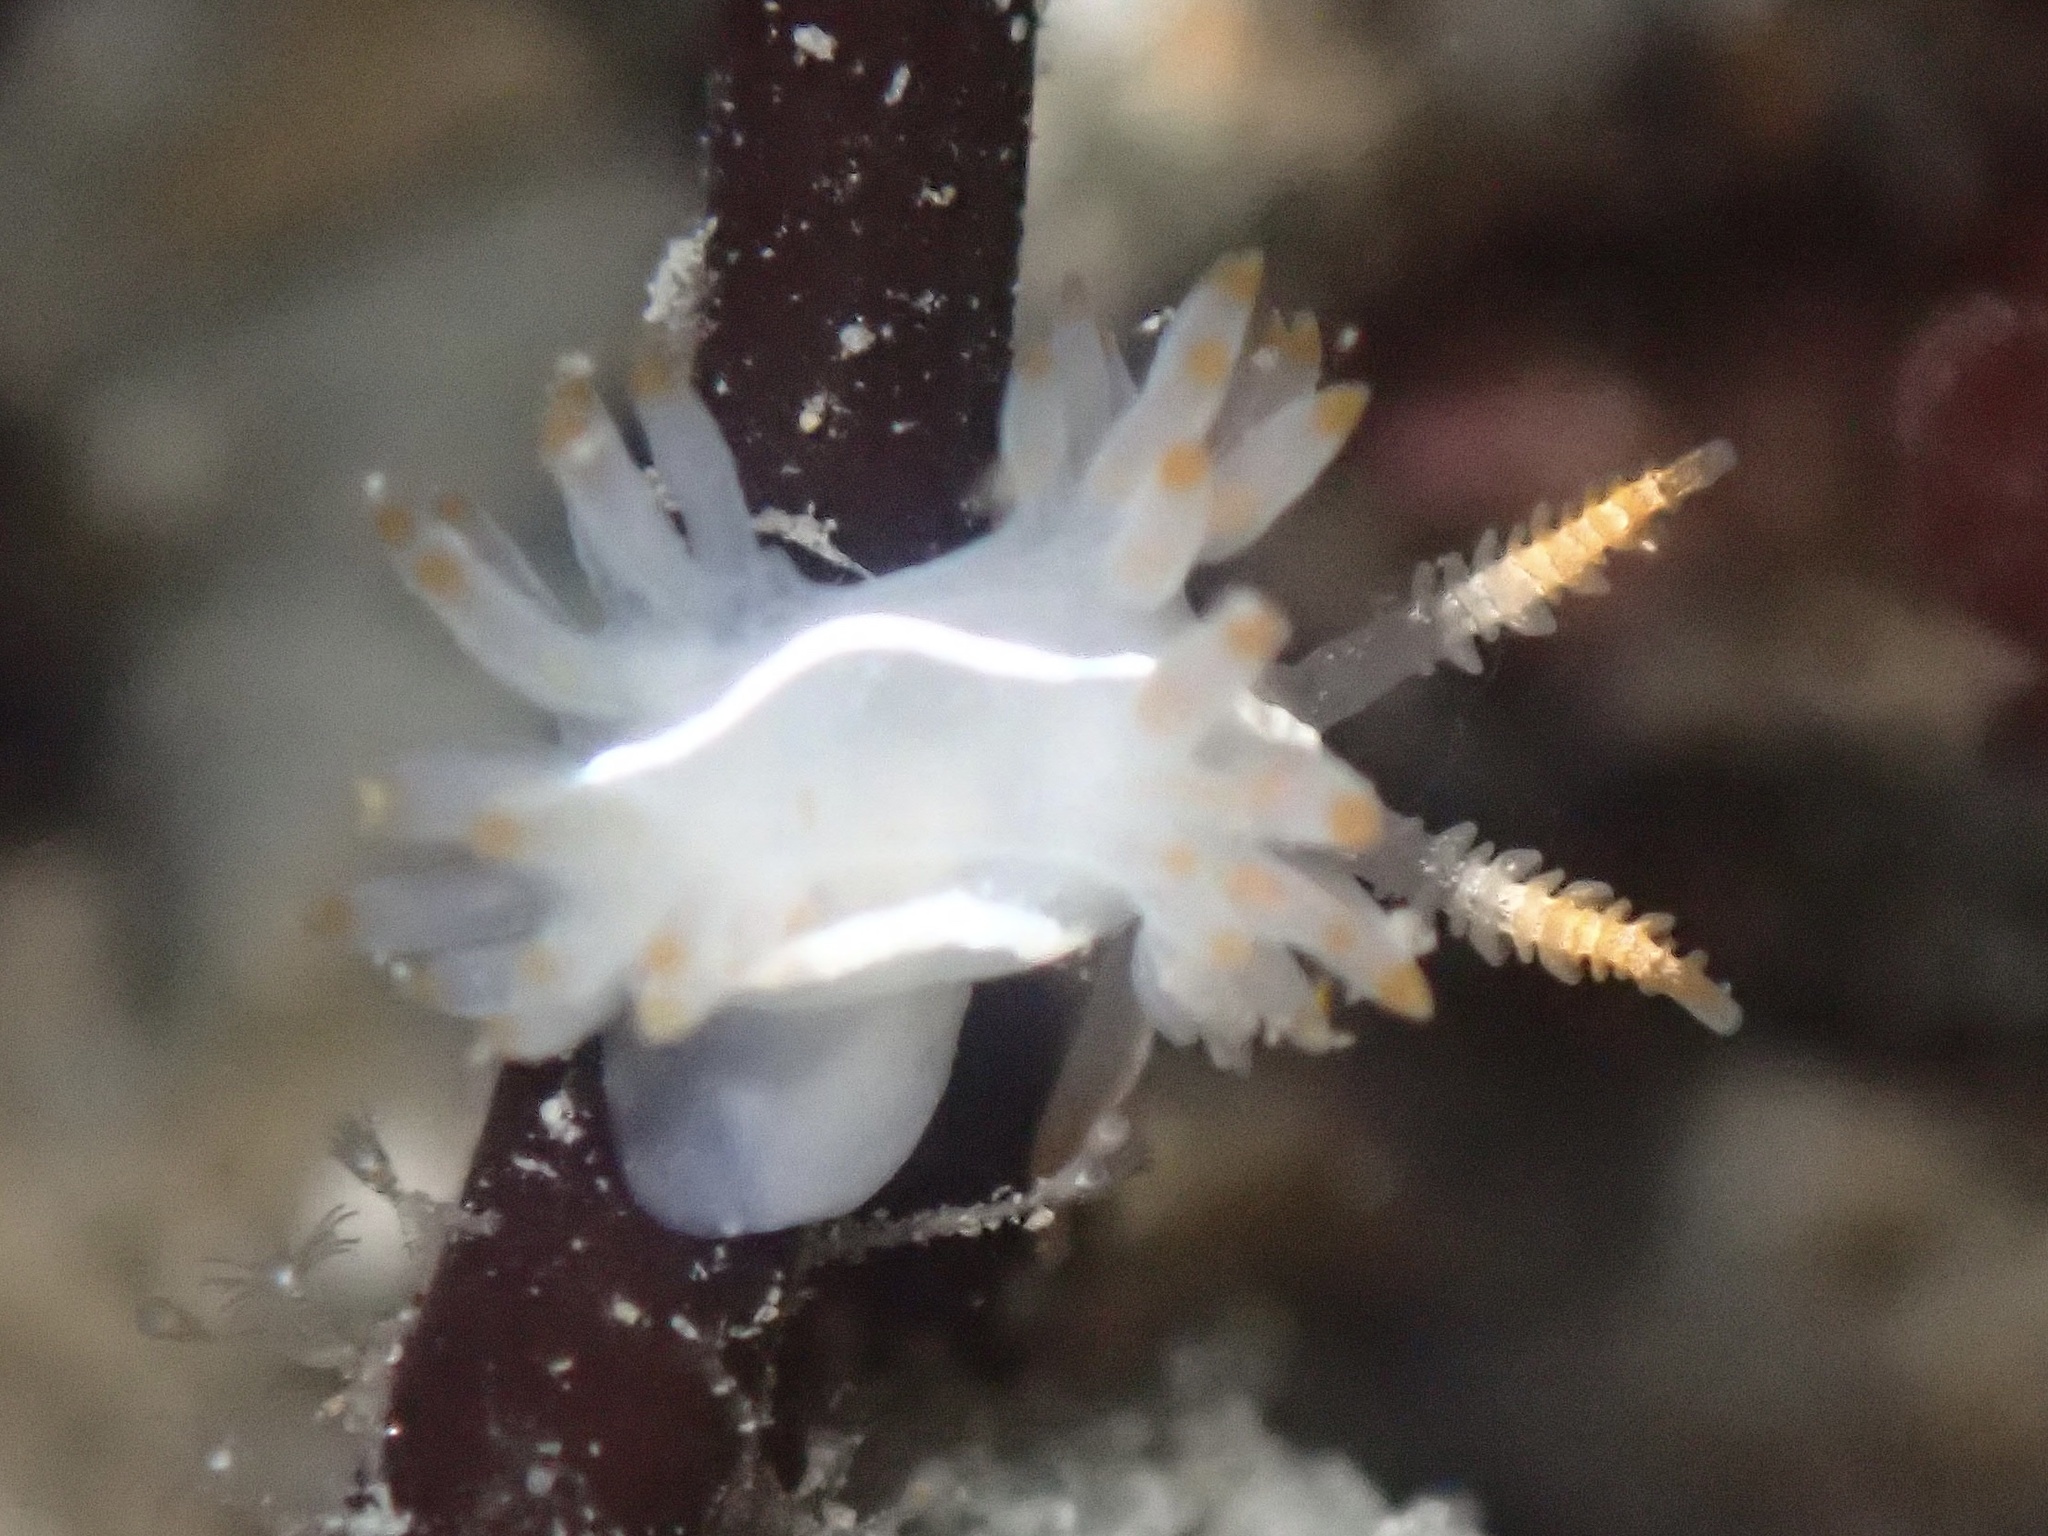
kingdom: Animalia
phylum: Mollusca
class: Gastropoda
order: Nudibranchia
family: Coryphellidae
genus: Coryphella
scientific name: Coryphella trilineata
